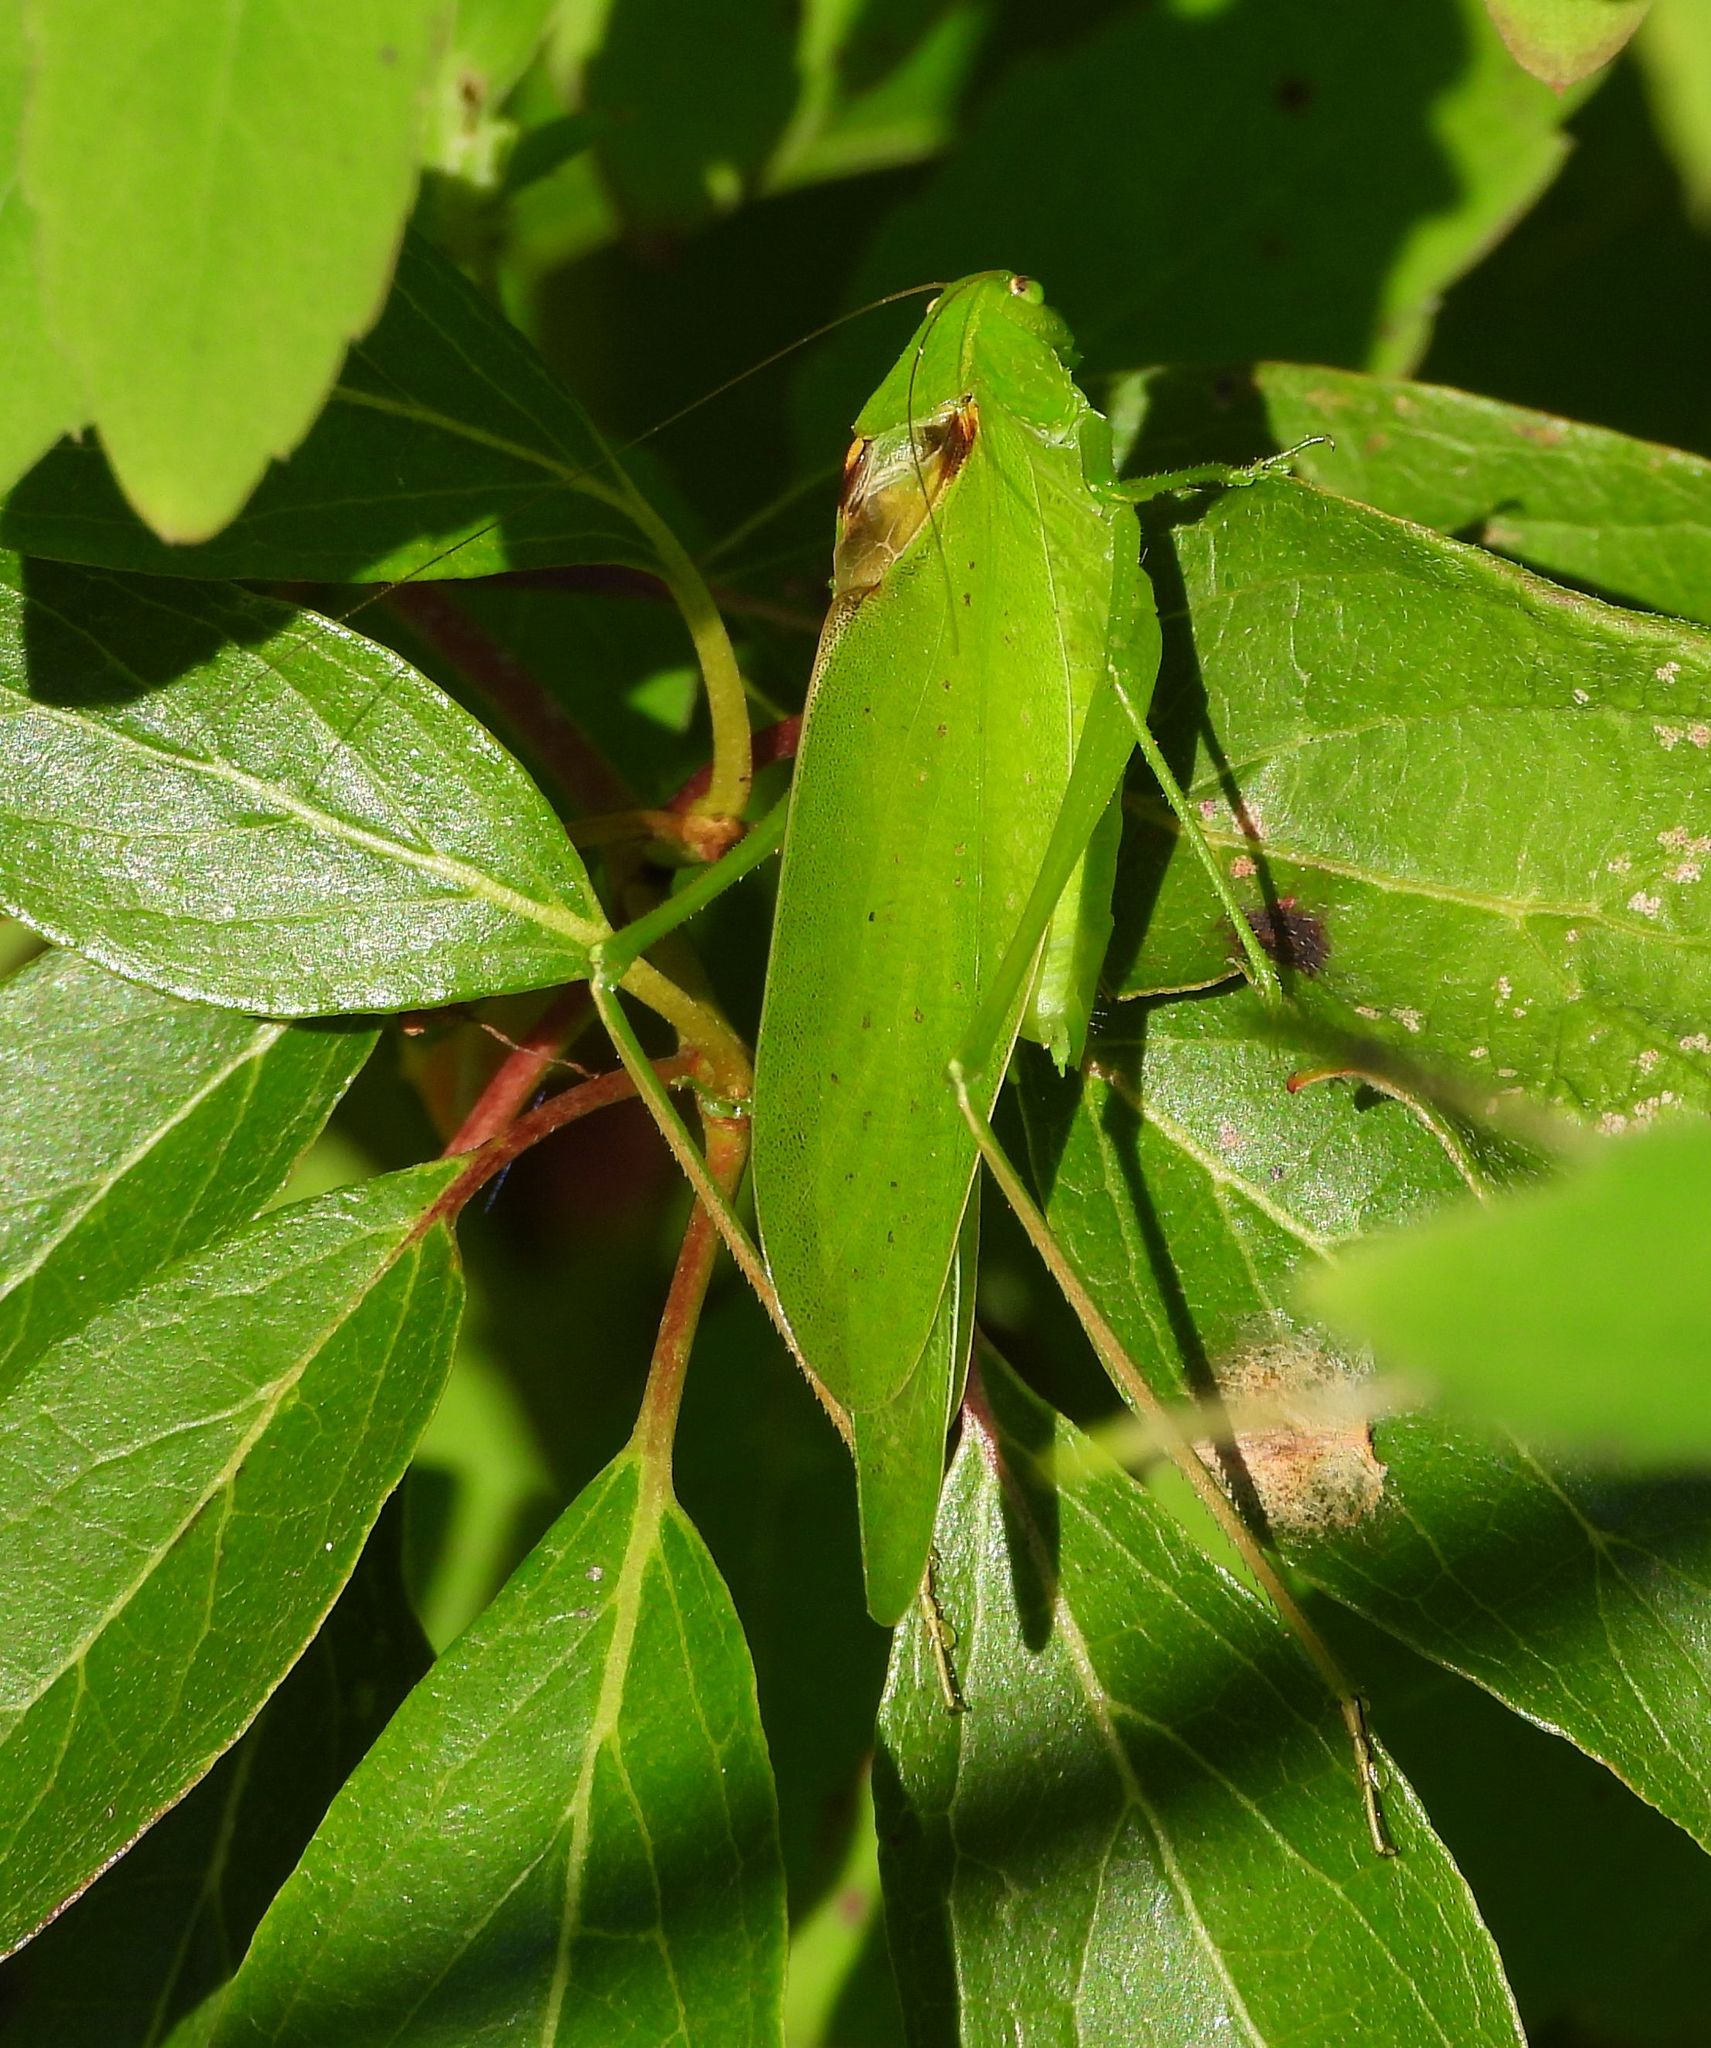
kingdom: Animalia
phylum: Arthropoda
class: Insecta
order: Orthoptera
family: Tettigoniidae
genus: Amblycorypha
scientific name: Amblycorypha oblongifolia
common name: Oblong-winged katydid
